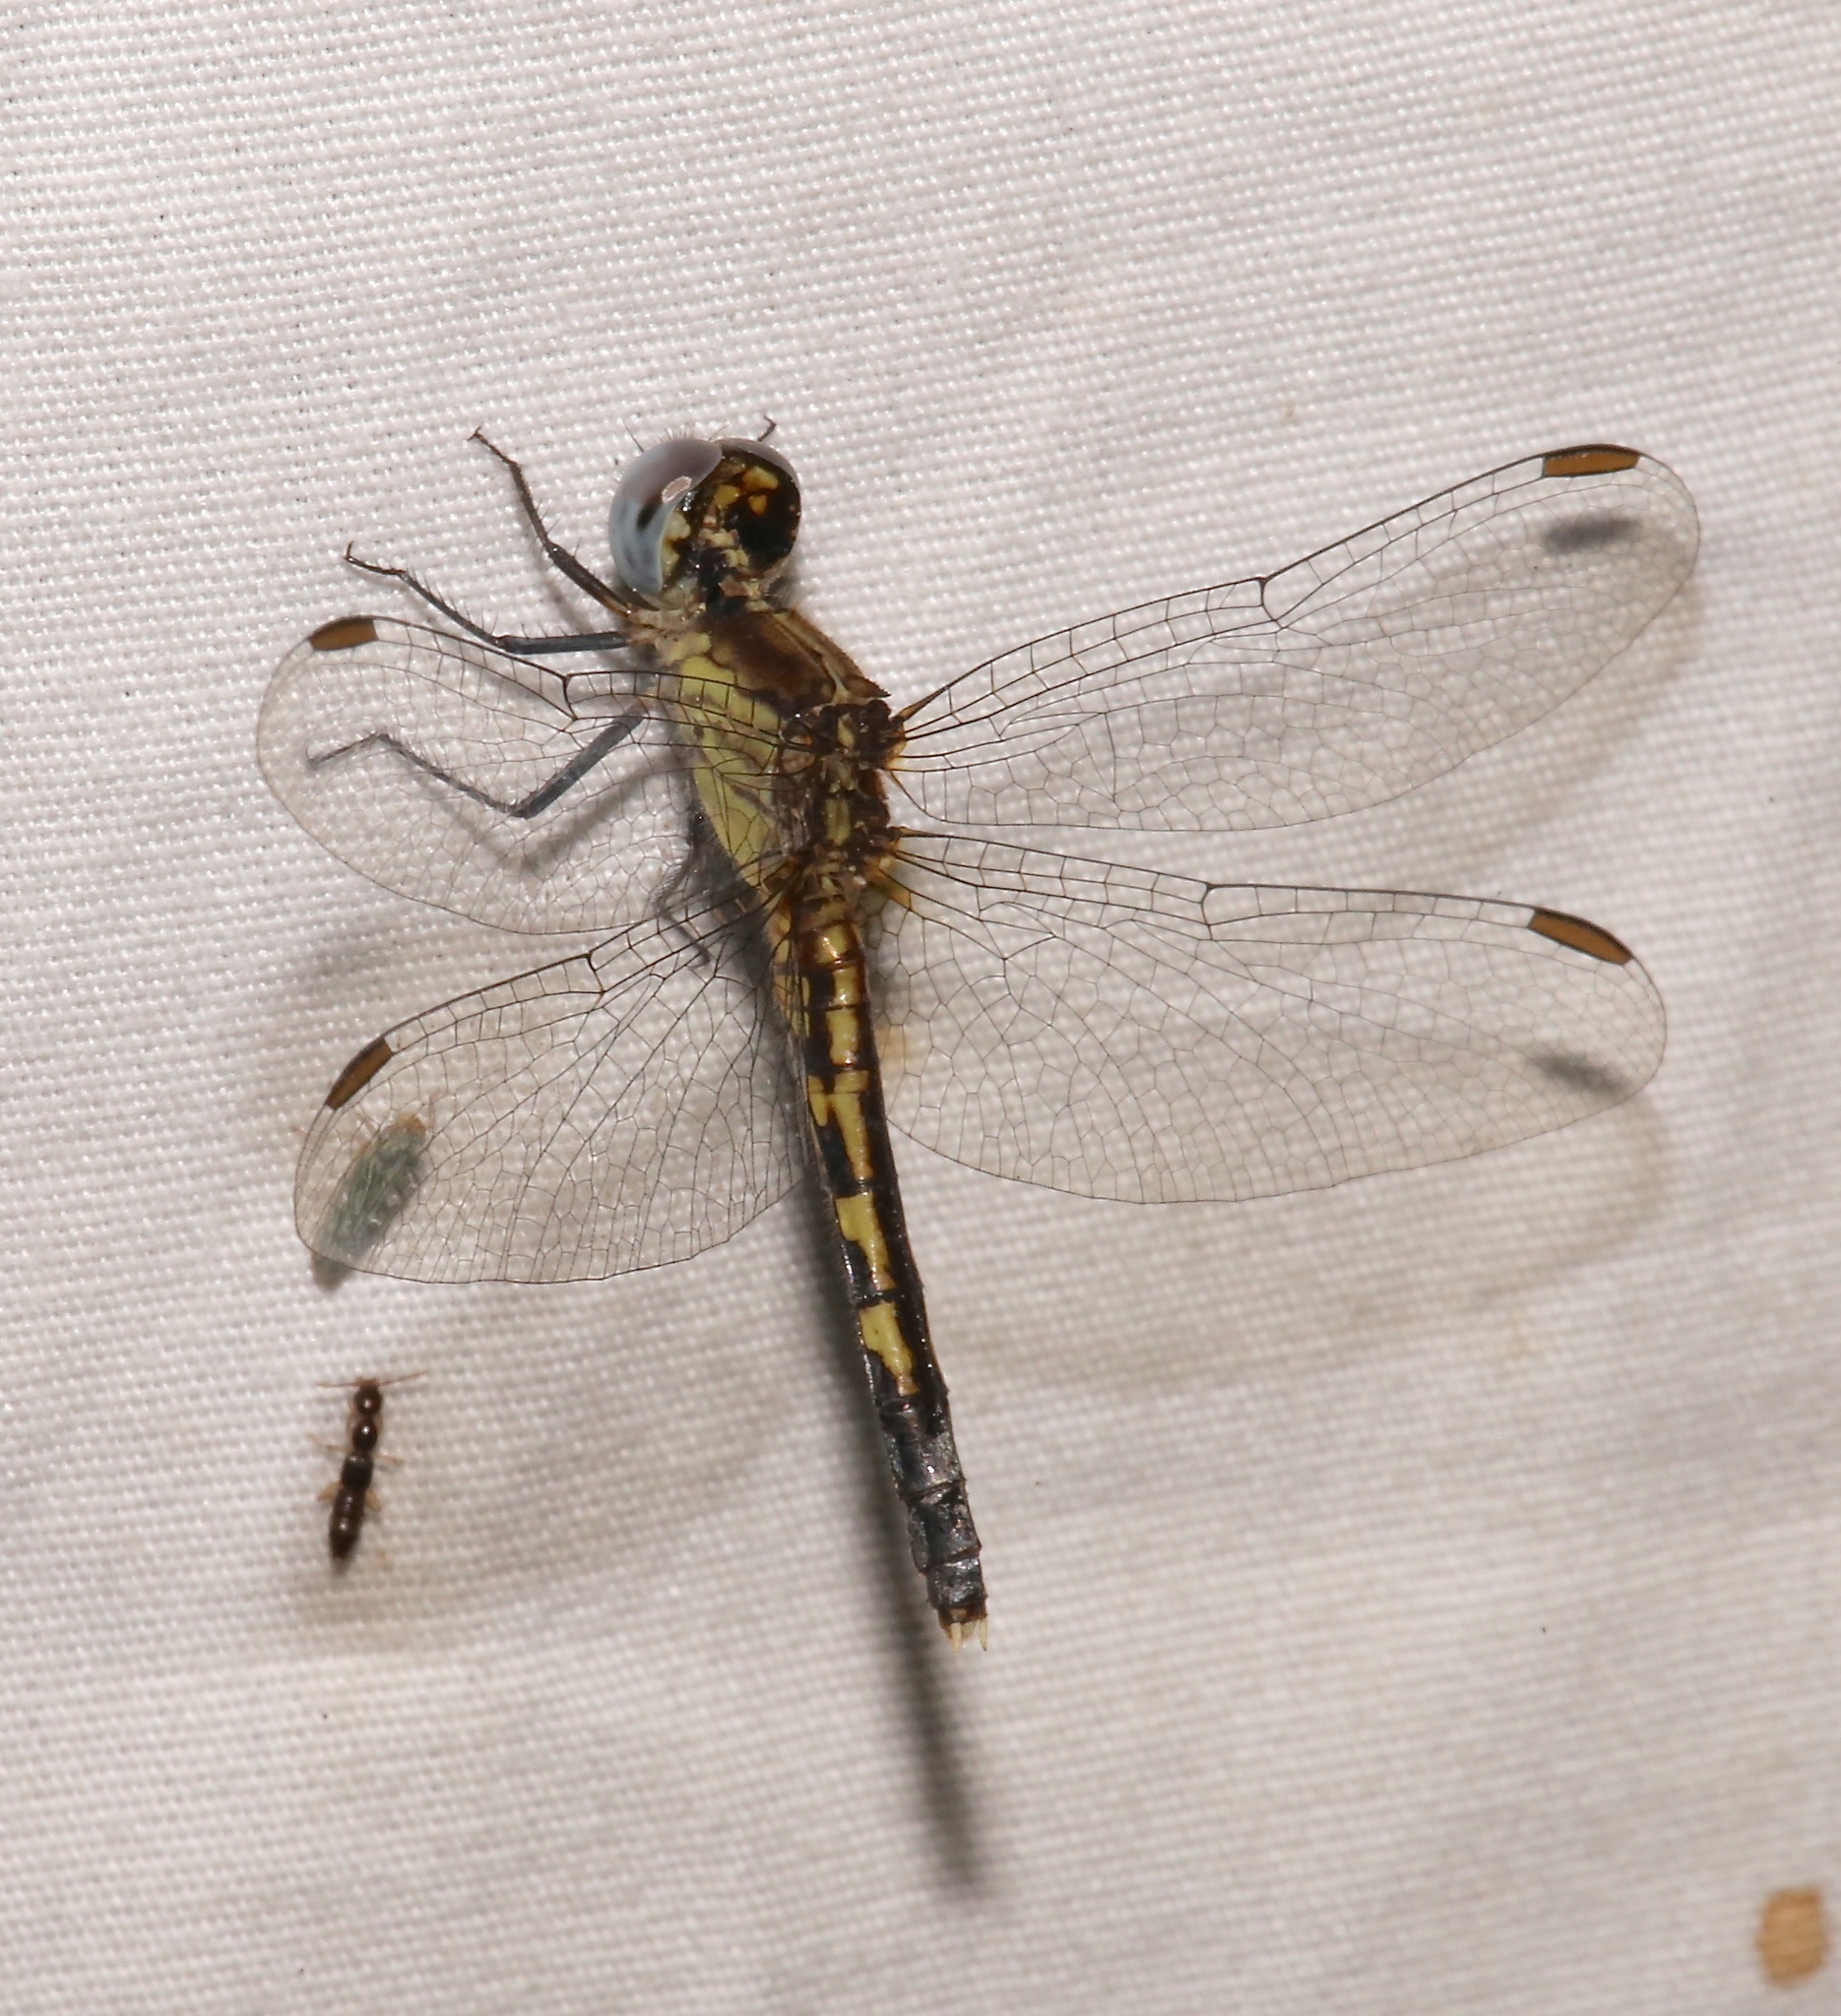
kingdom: Animalia
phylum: Arthropoda
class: Insecta
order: Odonata
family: Libellulidae
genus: Erythrodiplax
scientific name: Erythrodiplax minuscula
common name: Little blue dragonlet
